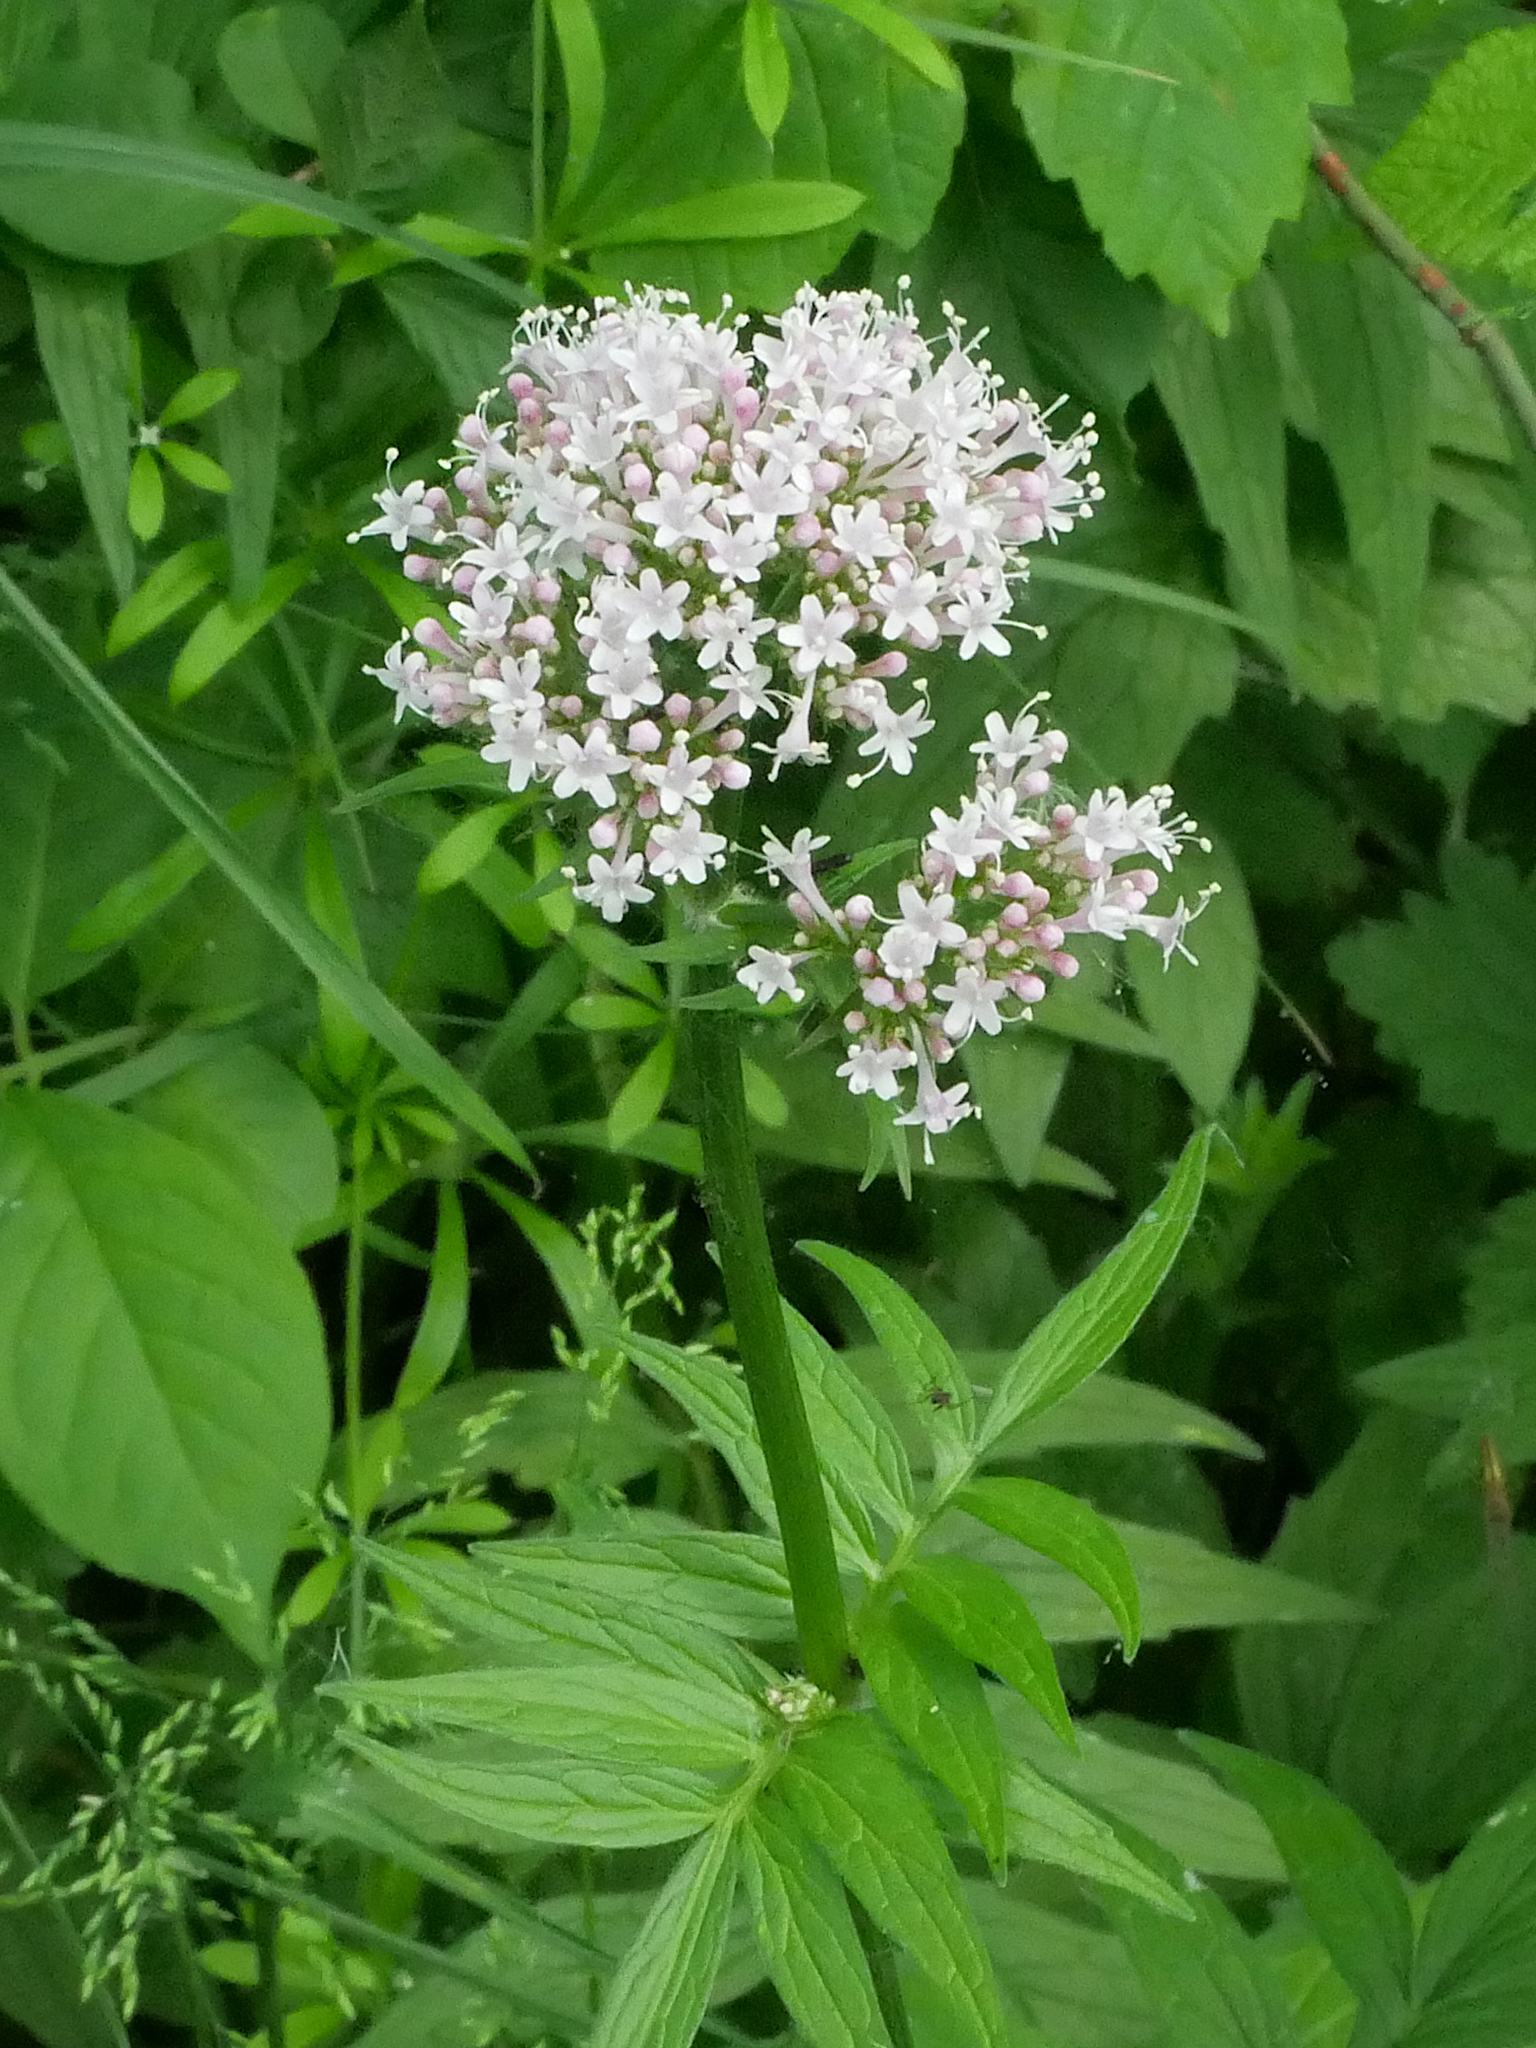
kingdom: Plantae
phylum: Tracheophyta
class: Magnoliopsida
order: Dipsacales
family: Caprifoliaceae
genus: Valeriana
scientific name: Valeriana officinalis
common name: Common valerian
